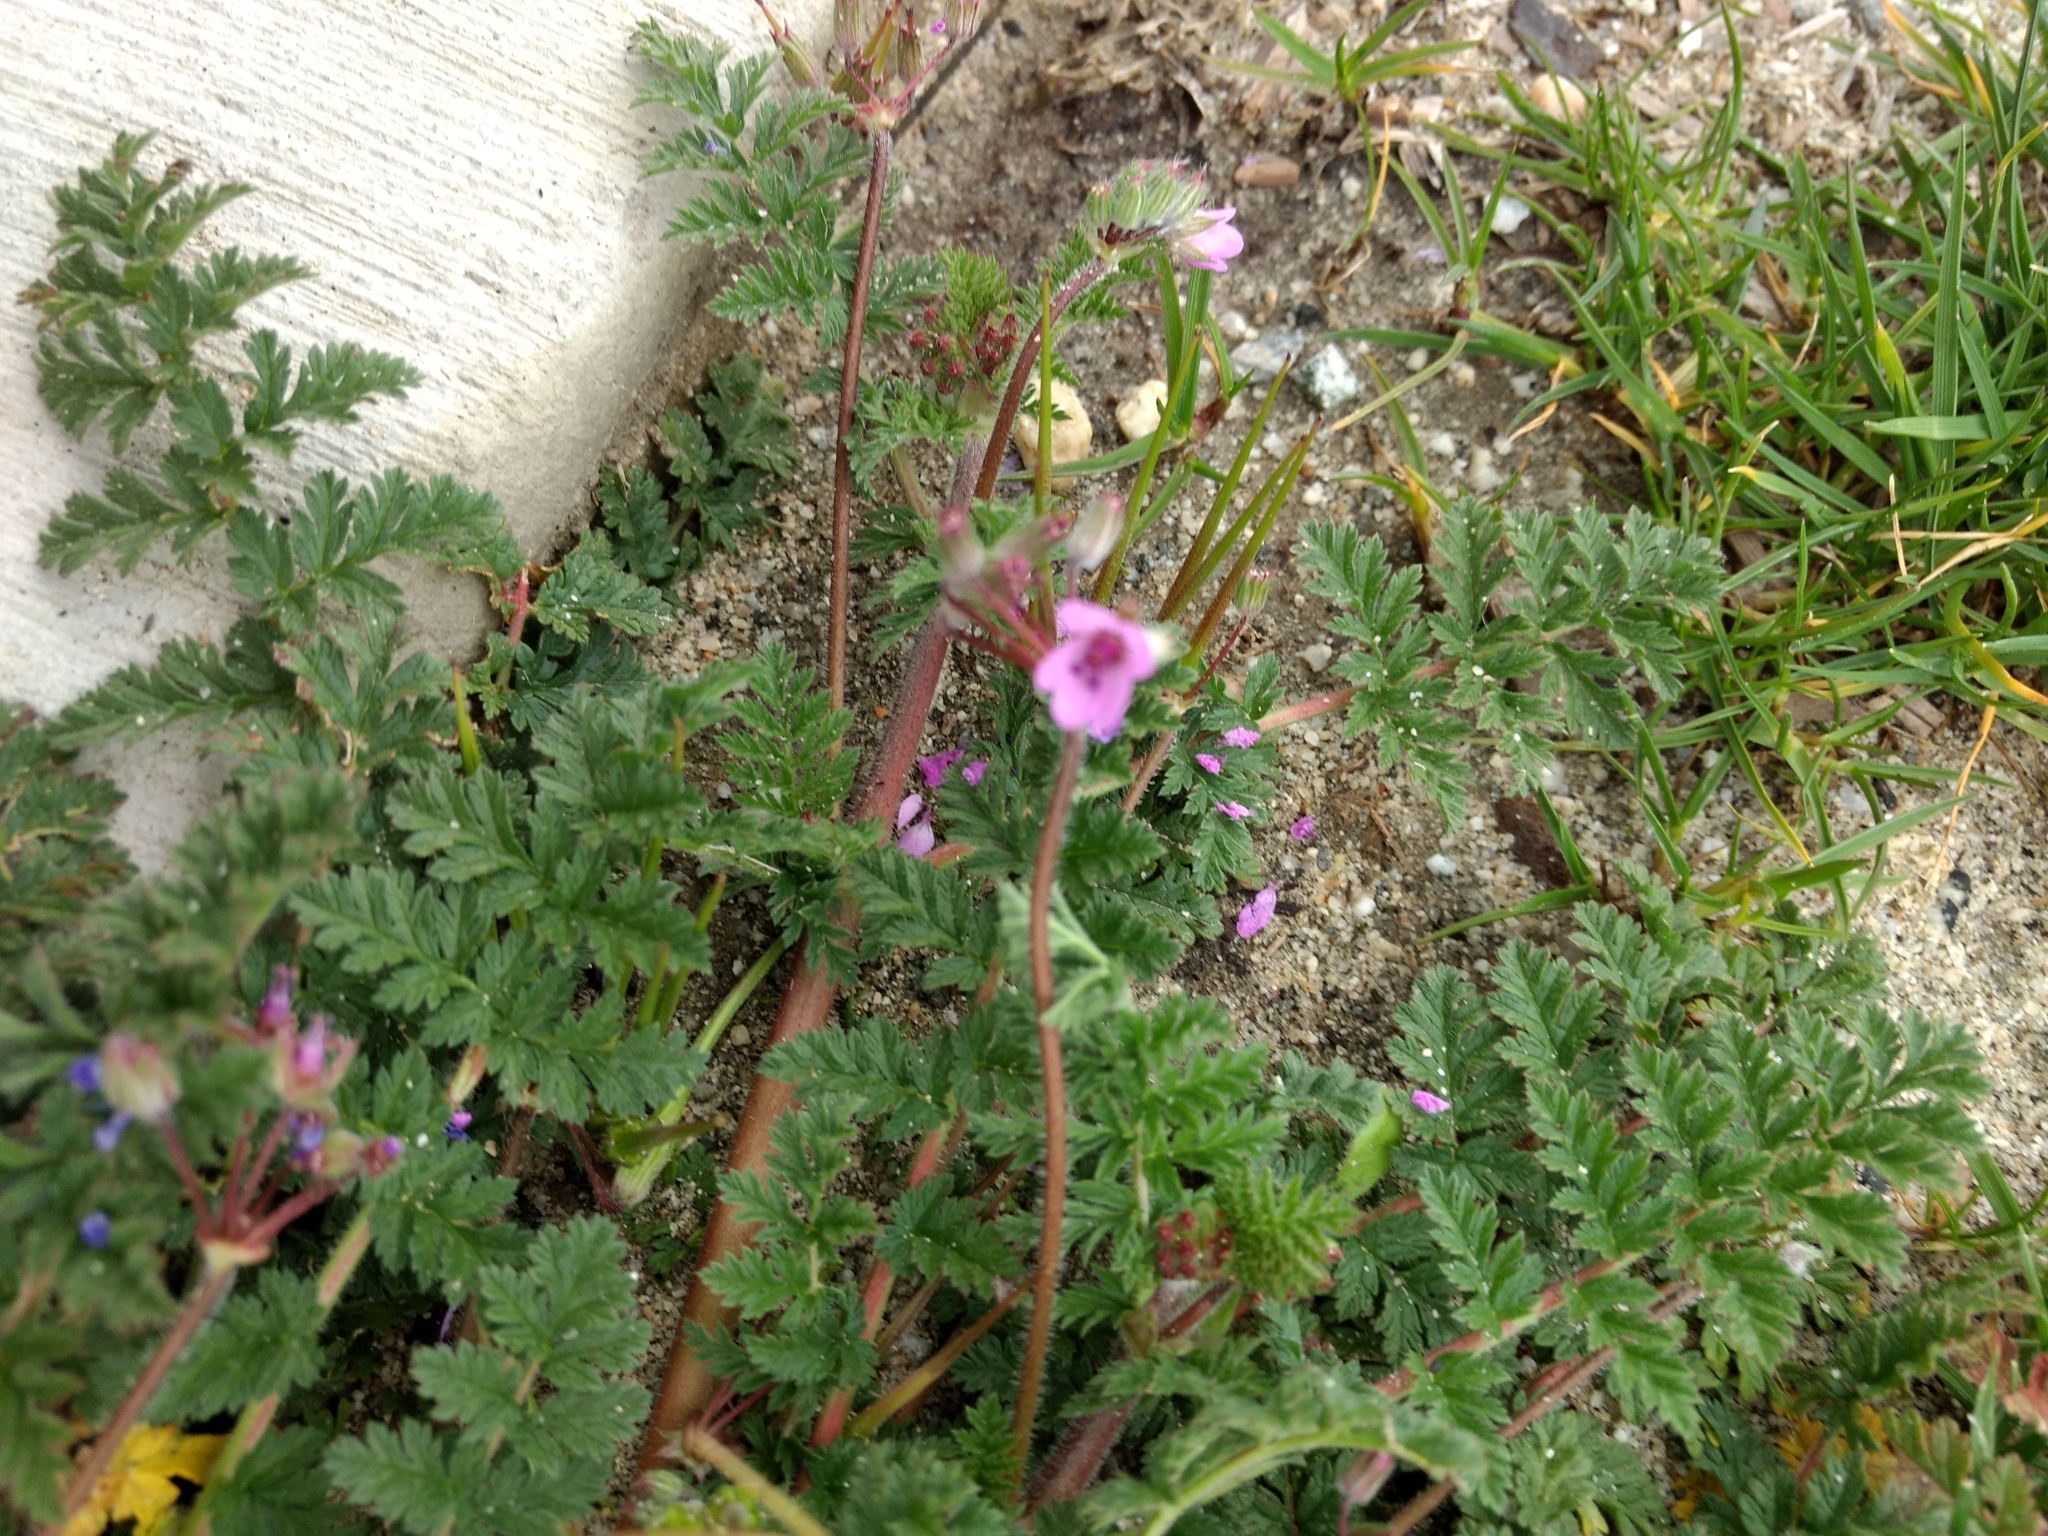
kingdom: Plantae
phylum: Tracheophyta
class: Magnoliopsida
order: Geraniales
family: Geraniaceae
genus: Erodium
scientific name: Erodium cicutarium
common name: Common stork's-bill
